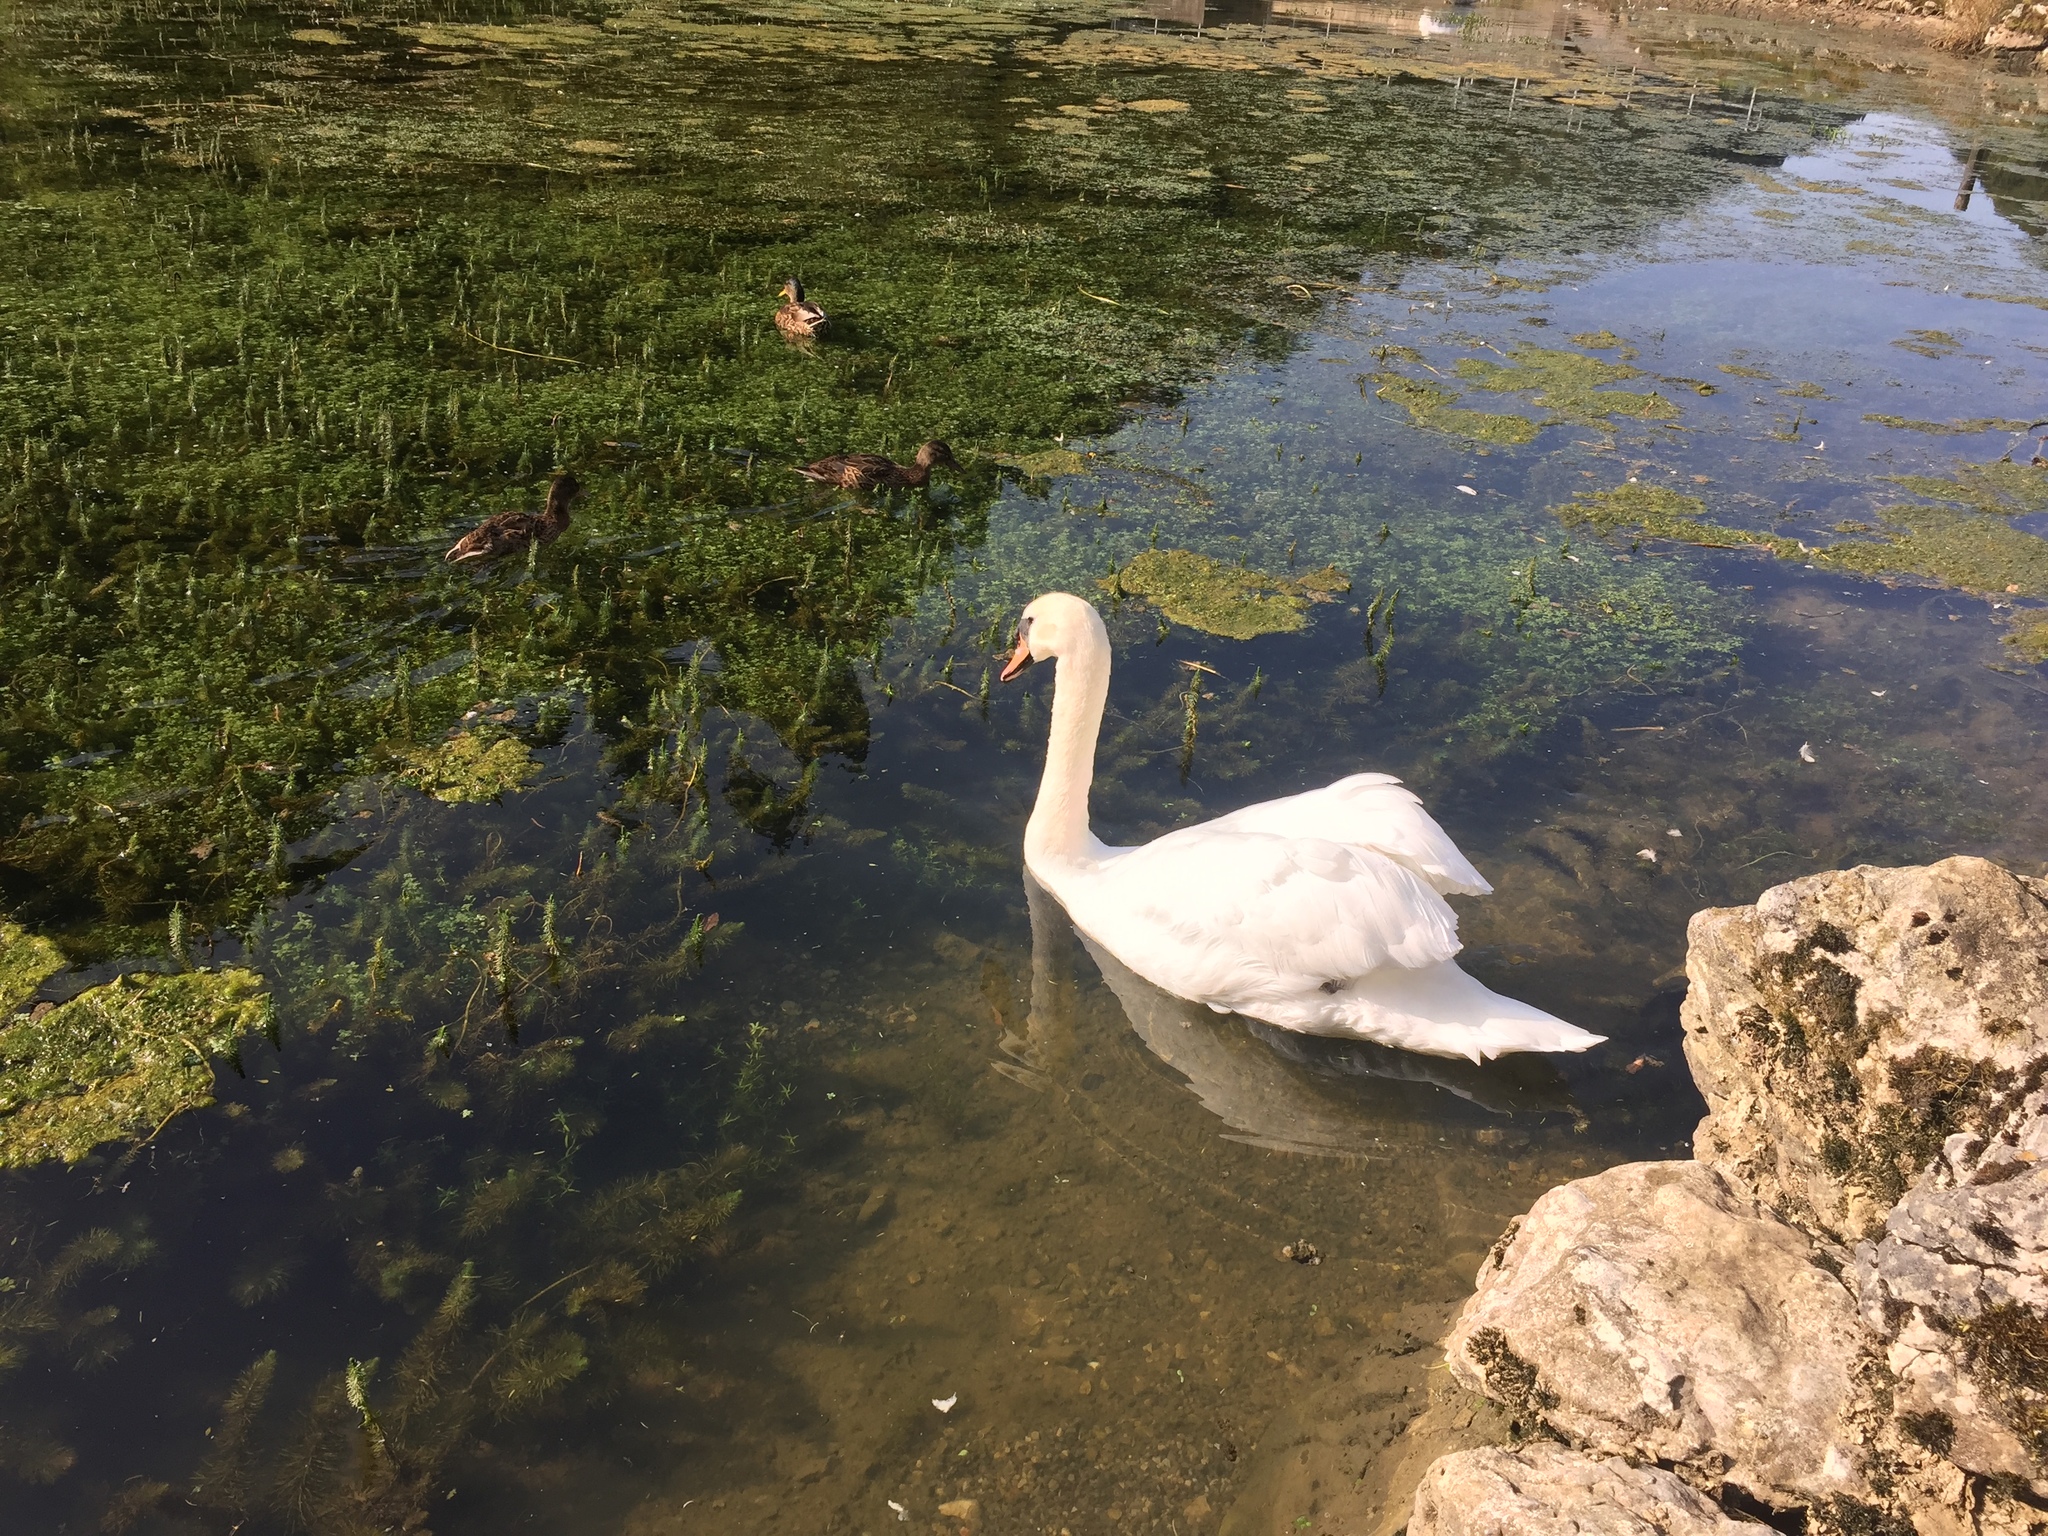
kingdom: Animalia
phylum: Chordata
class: Aves
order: Anseriformes
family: Anatidae
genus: Cygnus
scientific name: Cygnus olor
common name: Mute swan
